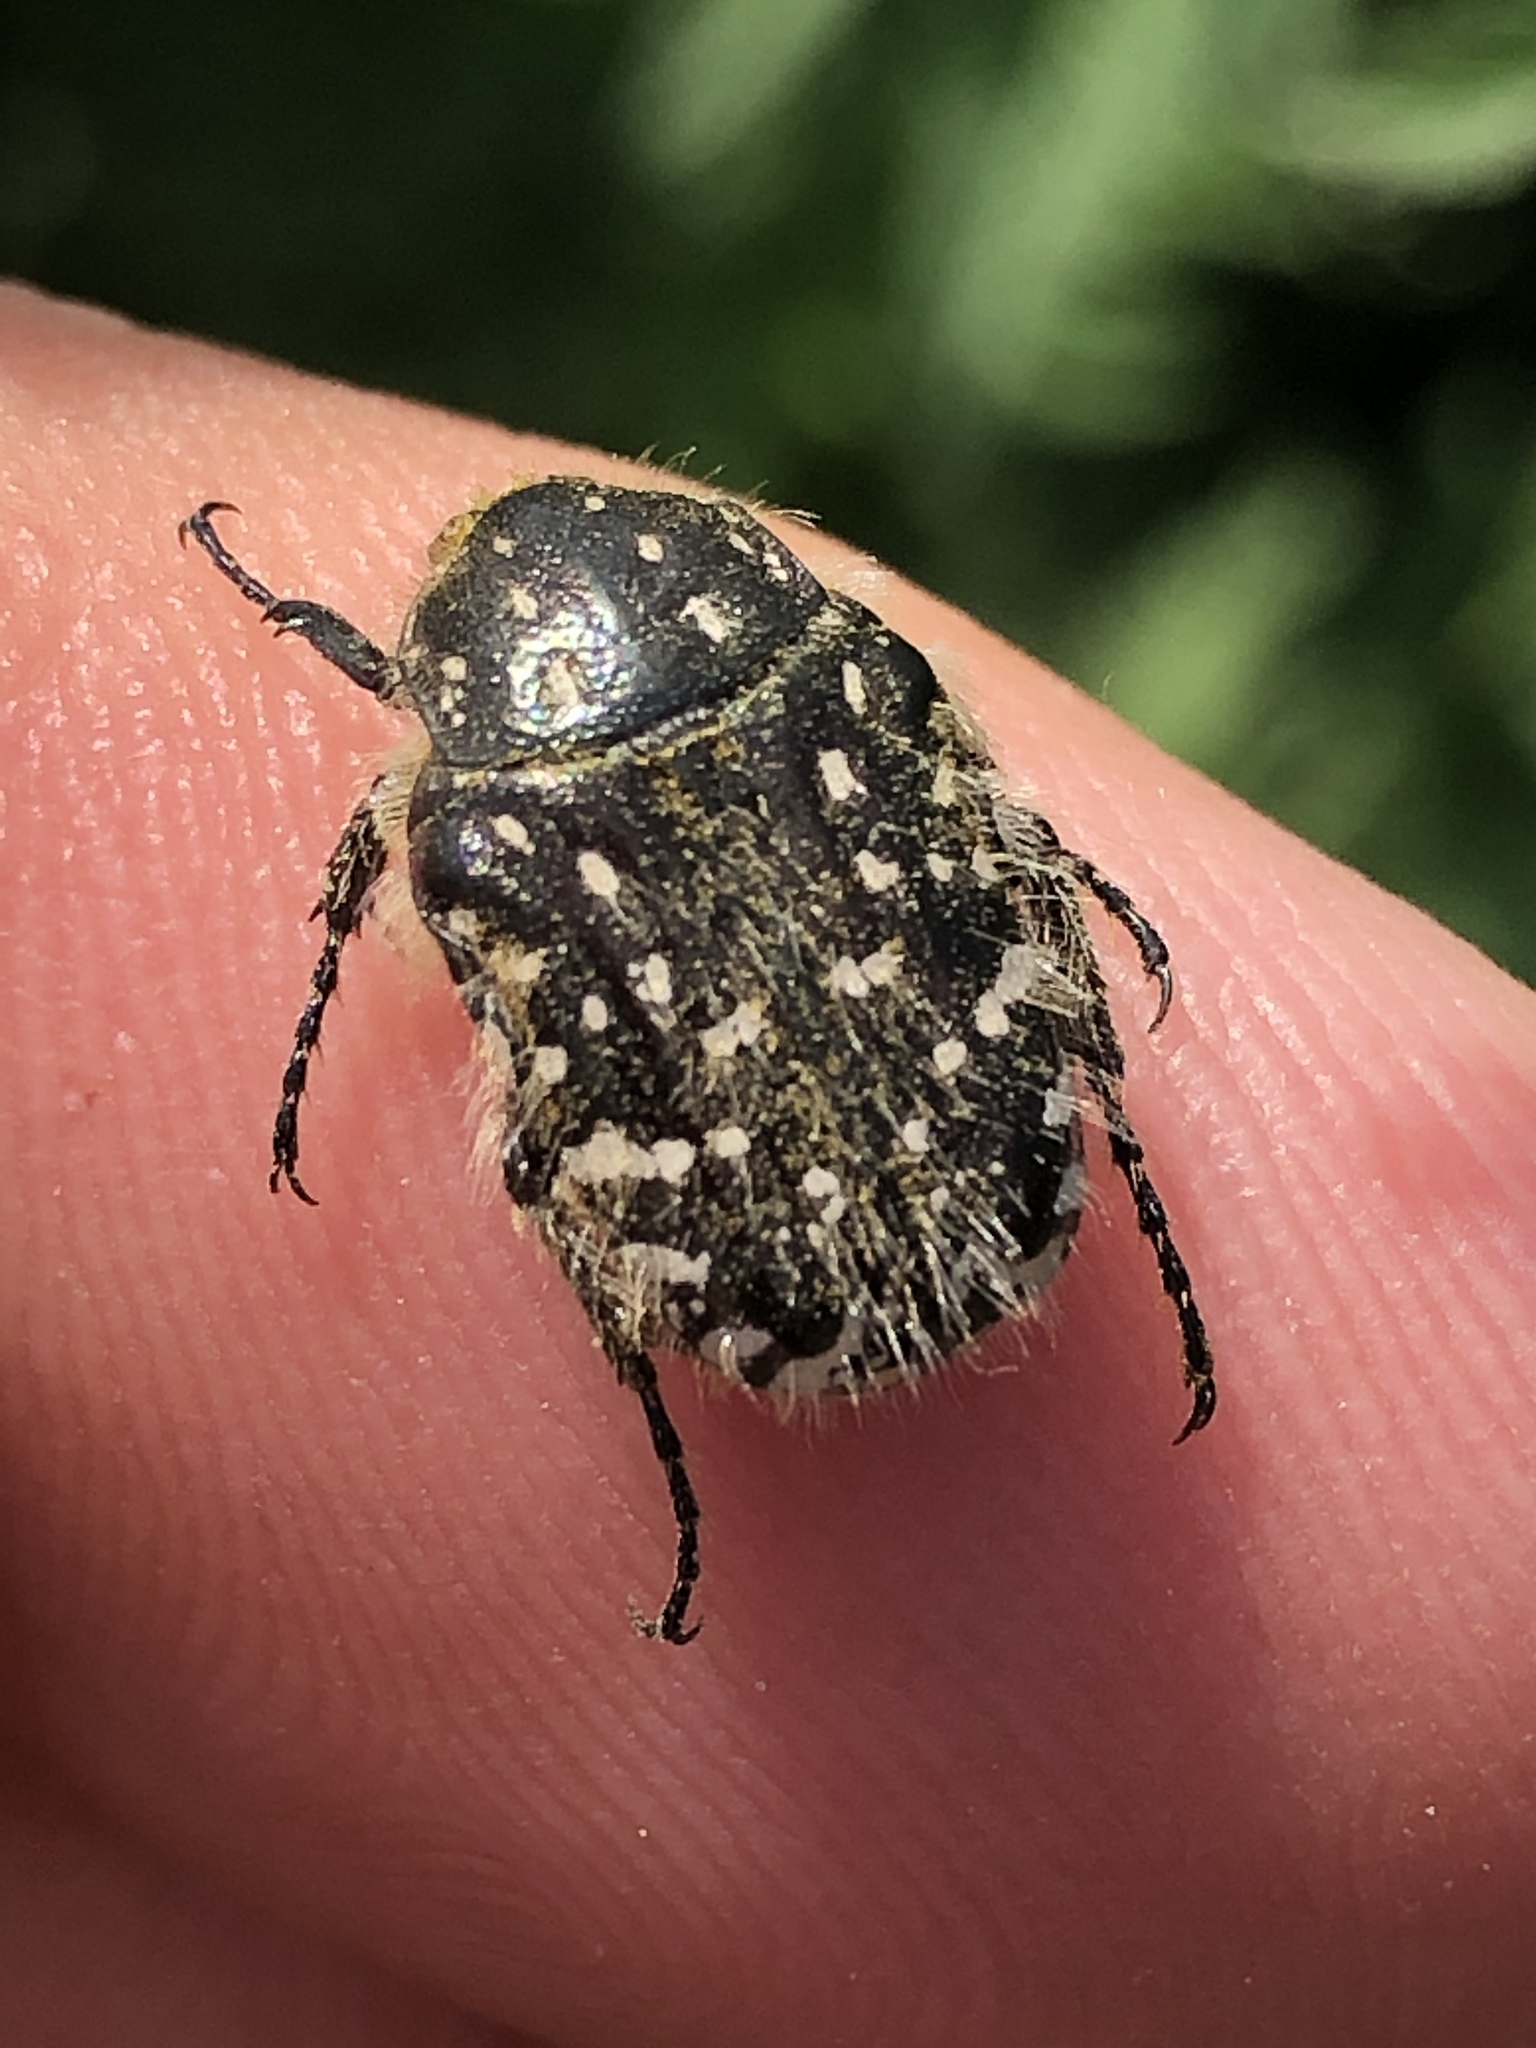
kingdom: Animalia
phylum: Arthropoda
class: Insecta
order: Coleoptera
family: Scarabaeidae
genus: Oxythyrea
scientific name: Oxythyrea funesta
